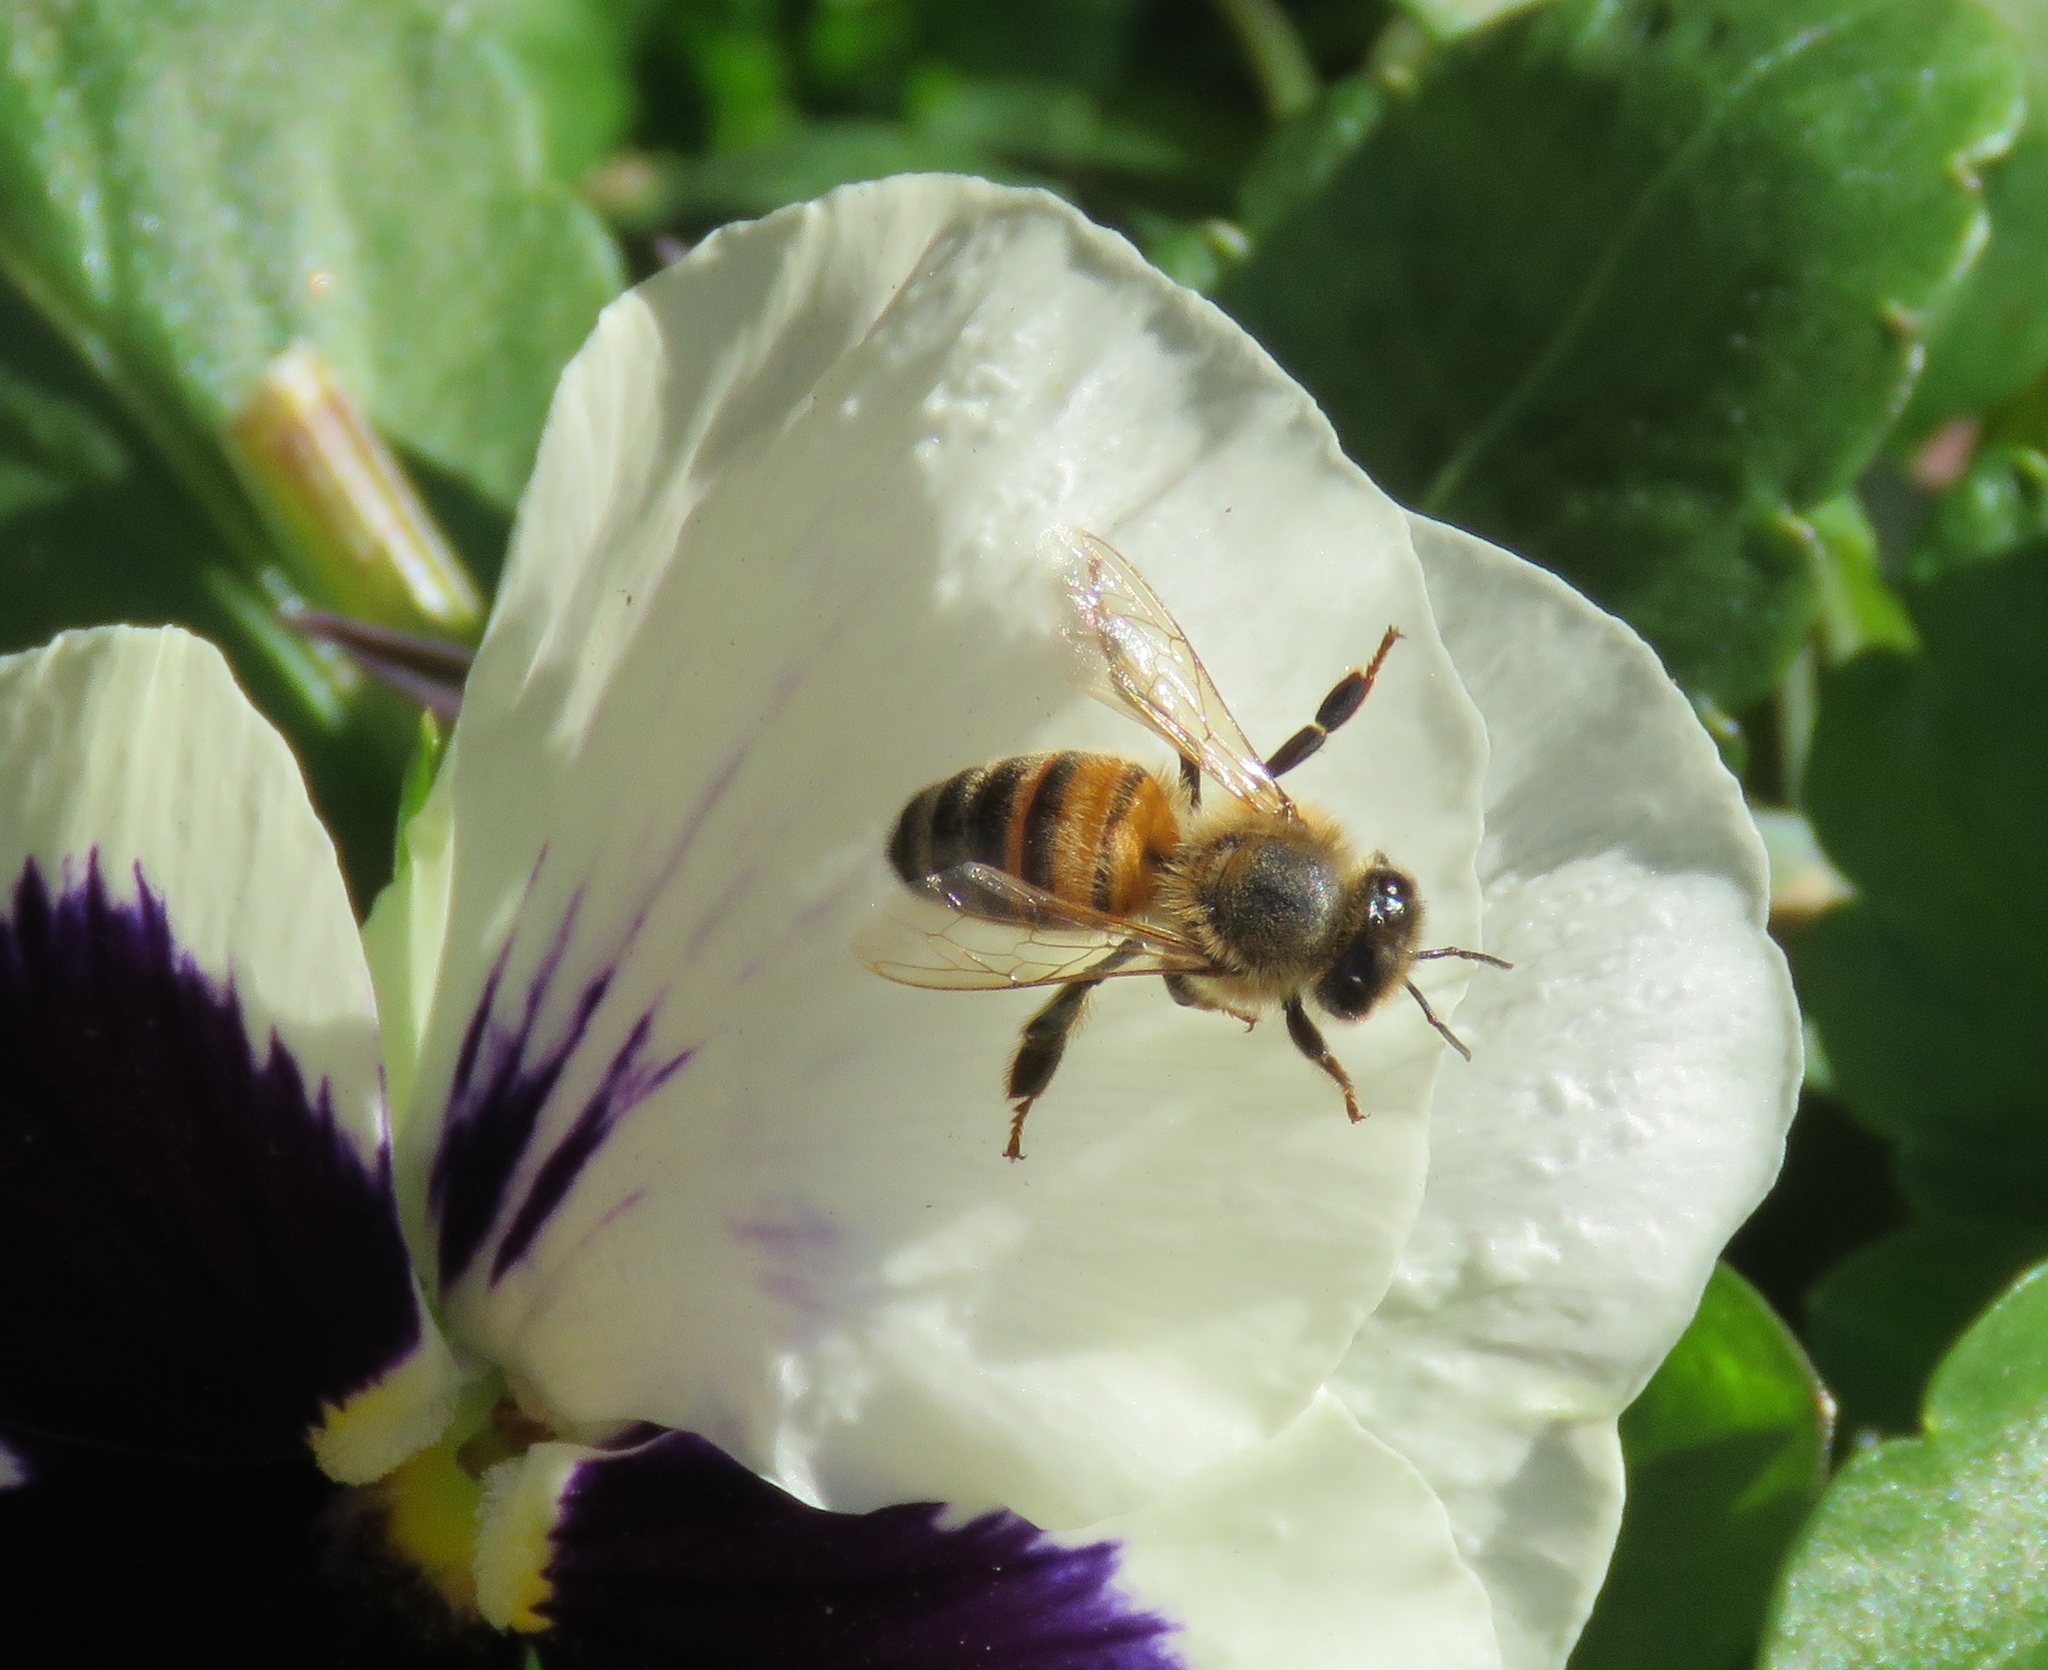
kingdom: Animalia
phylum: Arthropoda
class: Insecta
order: Hymenoptera
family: Apidae
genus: Apis
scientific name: Apis mellifera
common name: Honey bee
